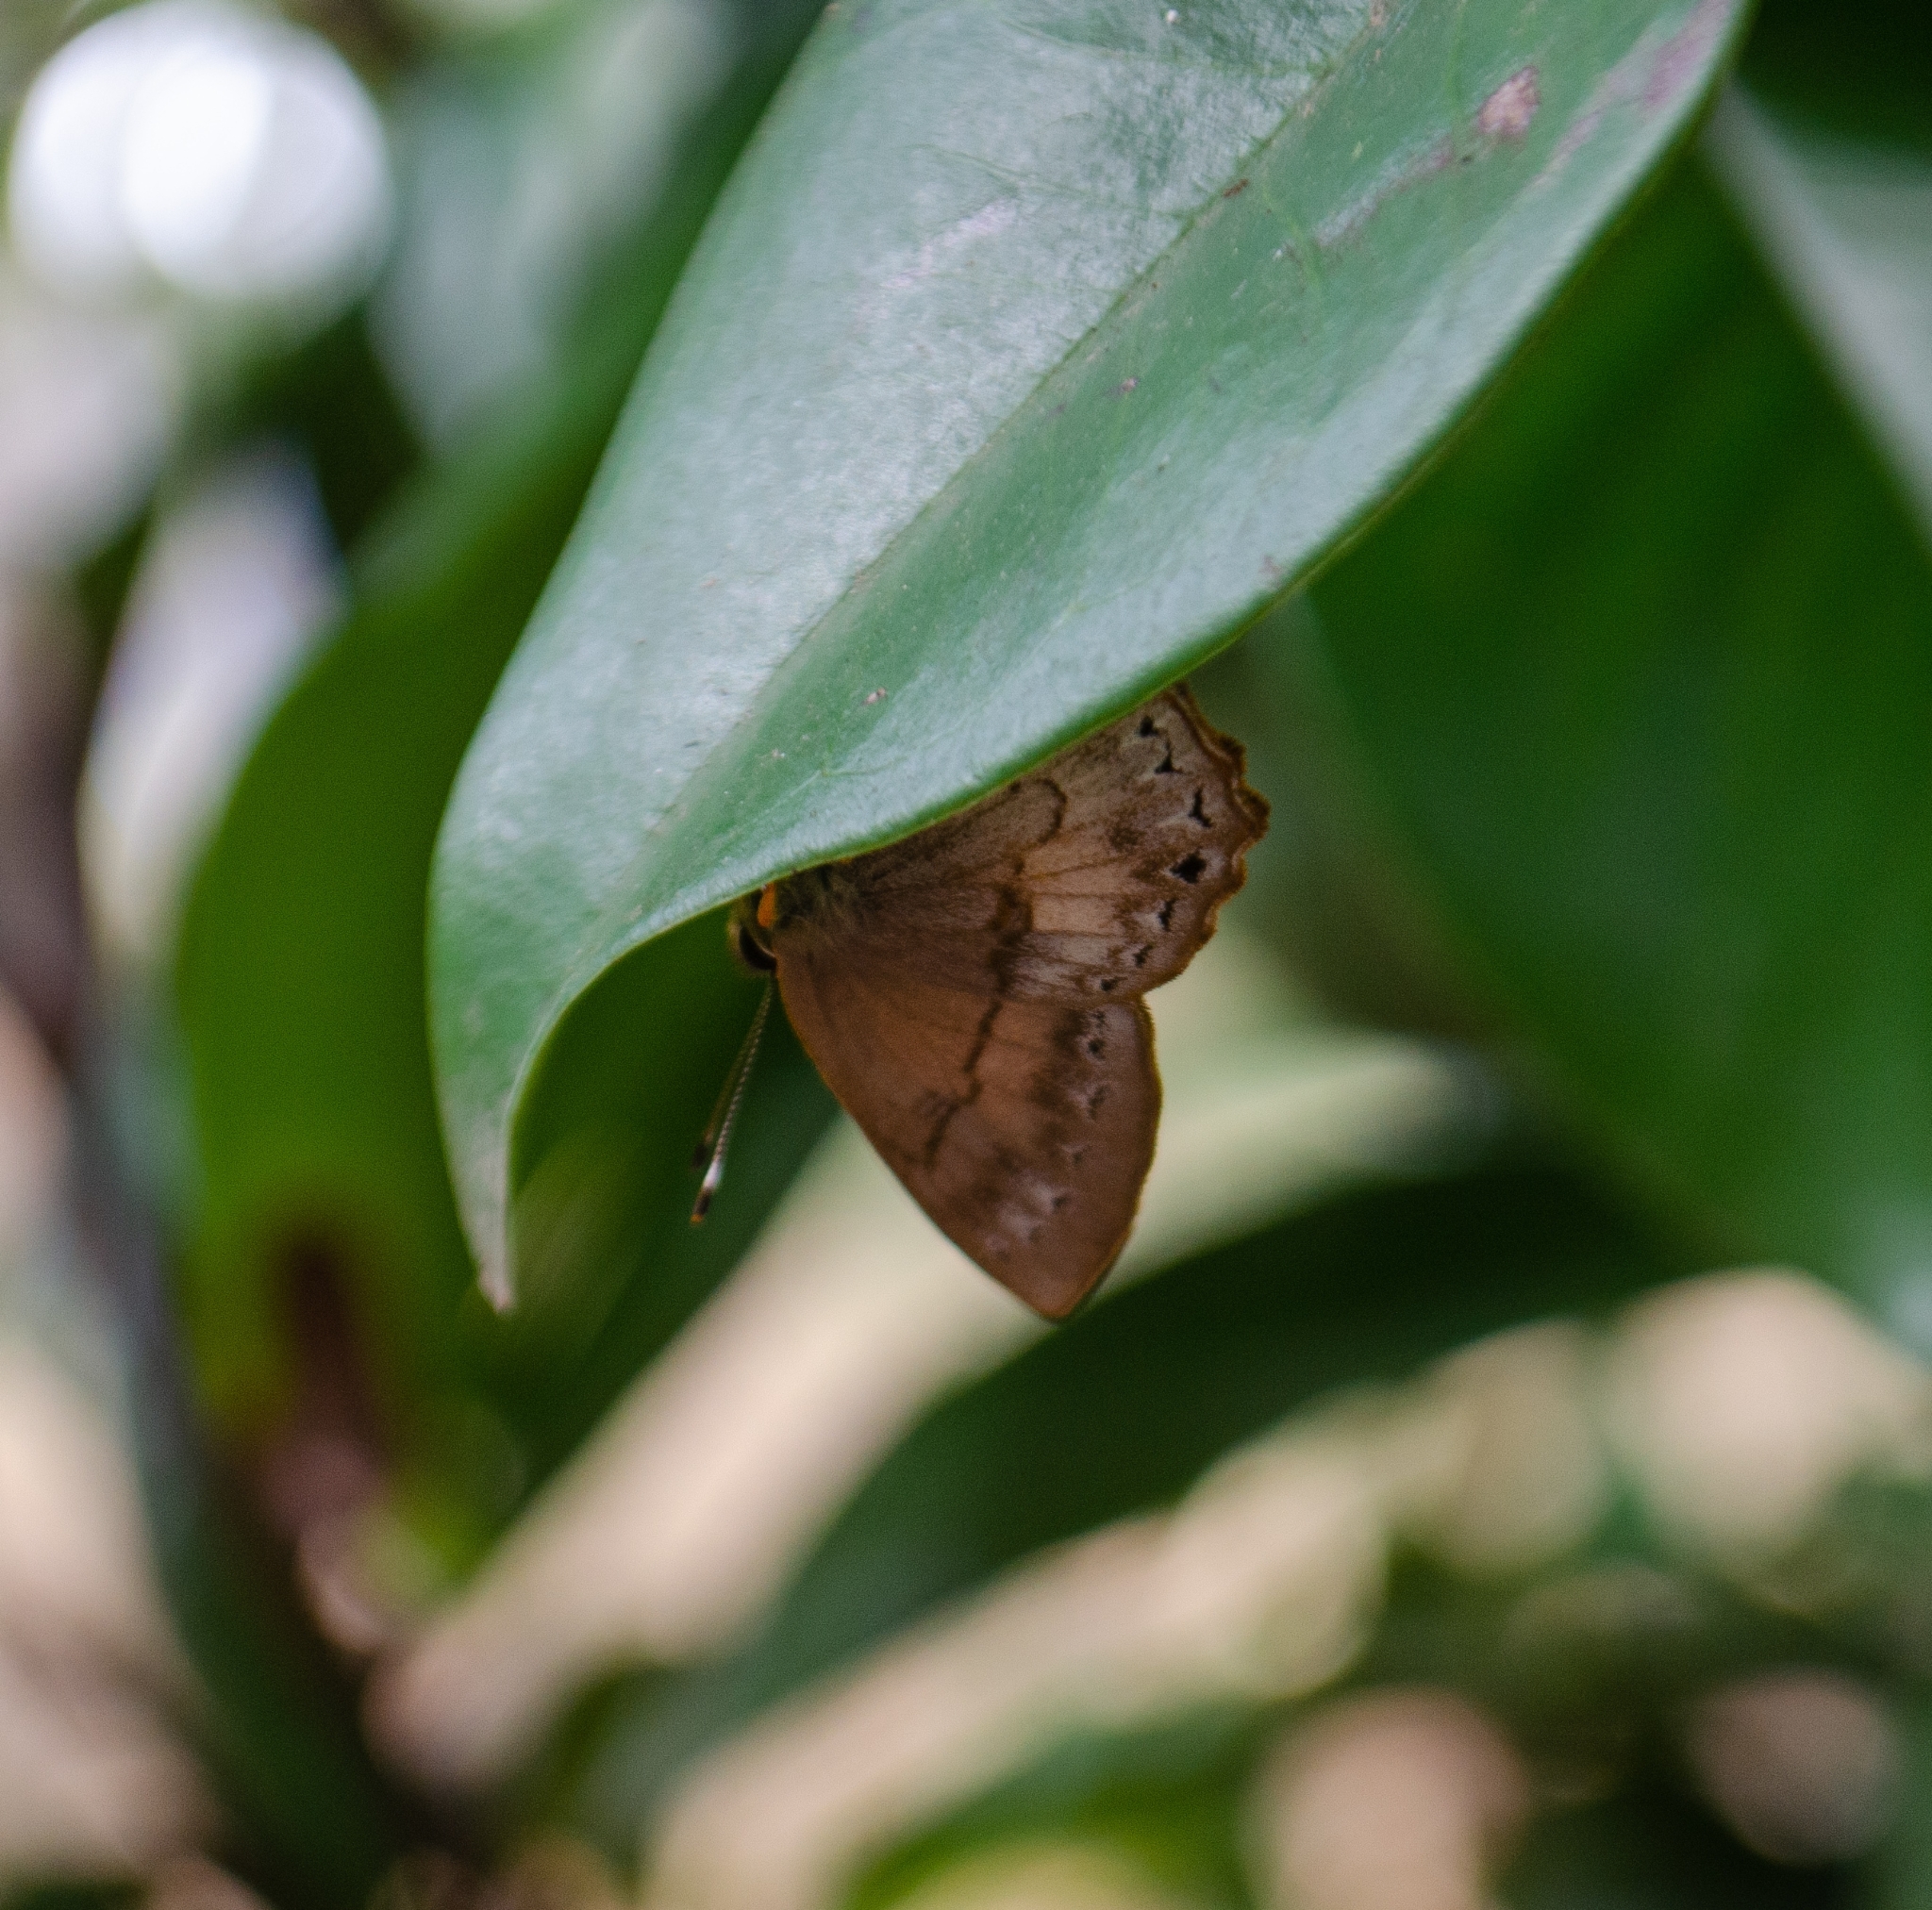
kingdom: Animalia
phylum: Arthropoda
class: Insecta
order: Lepidoptera
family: Lycaenidae
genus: Euselasia
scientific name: Euselasia eucerus
